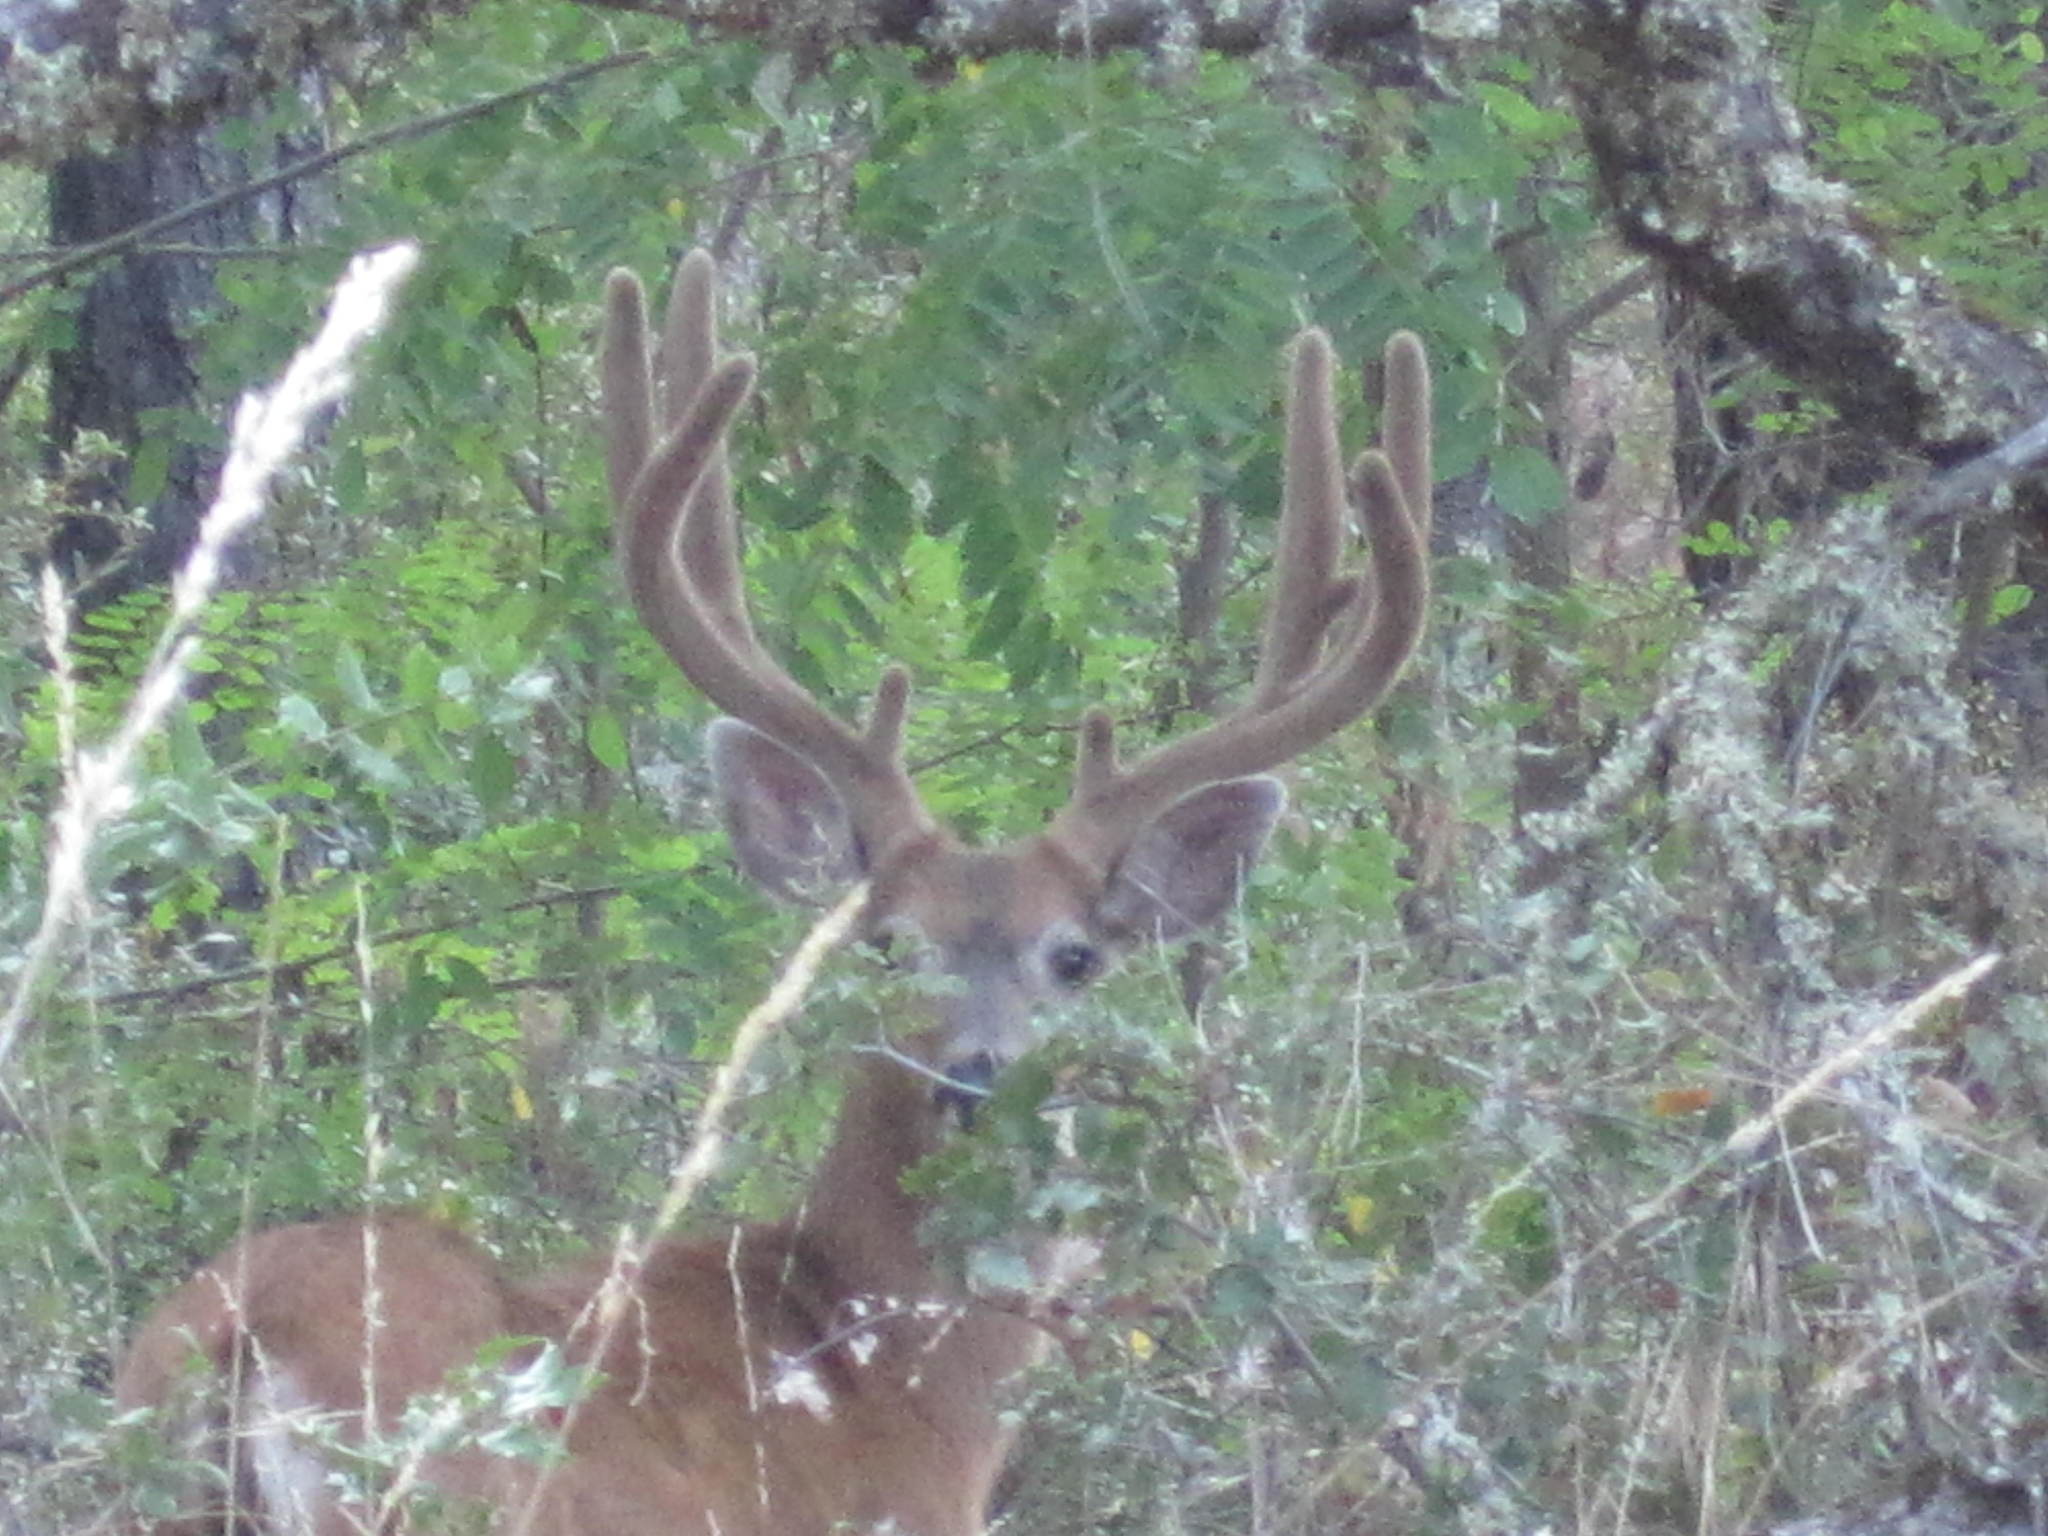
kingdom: Animalia
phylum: Chordata
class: Mammalia
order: Artiodactyla
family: Cervidae
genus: Odocoileus
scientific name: Odocoileus hemionus
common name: Mule deer
